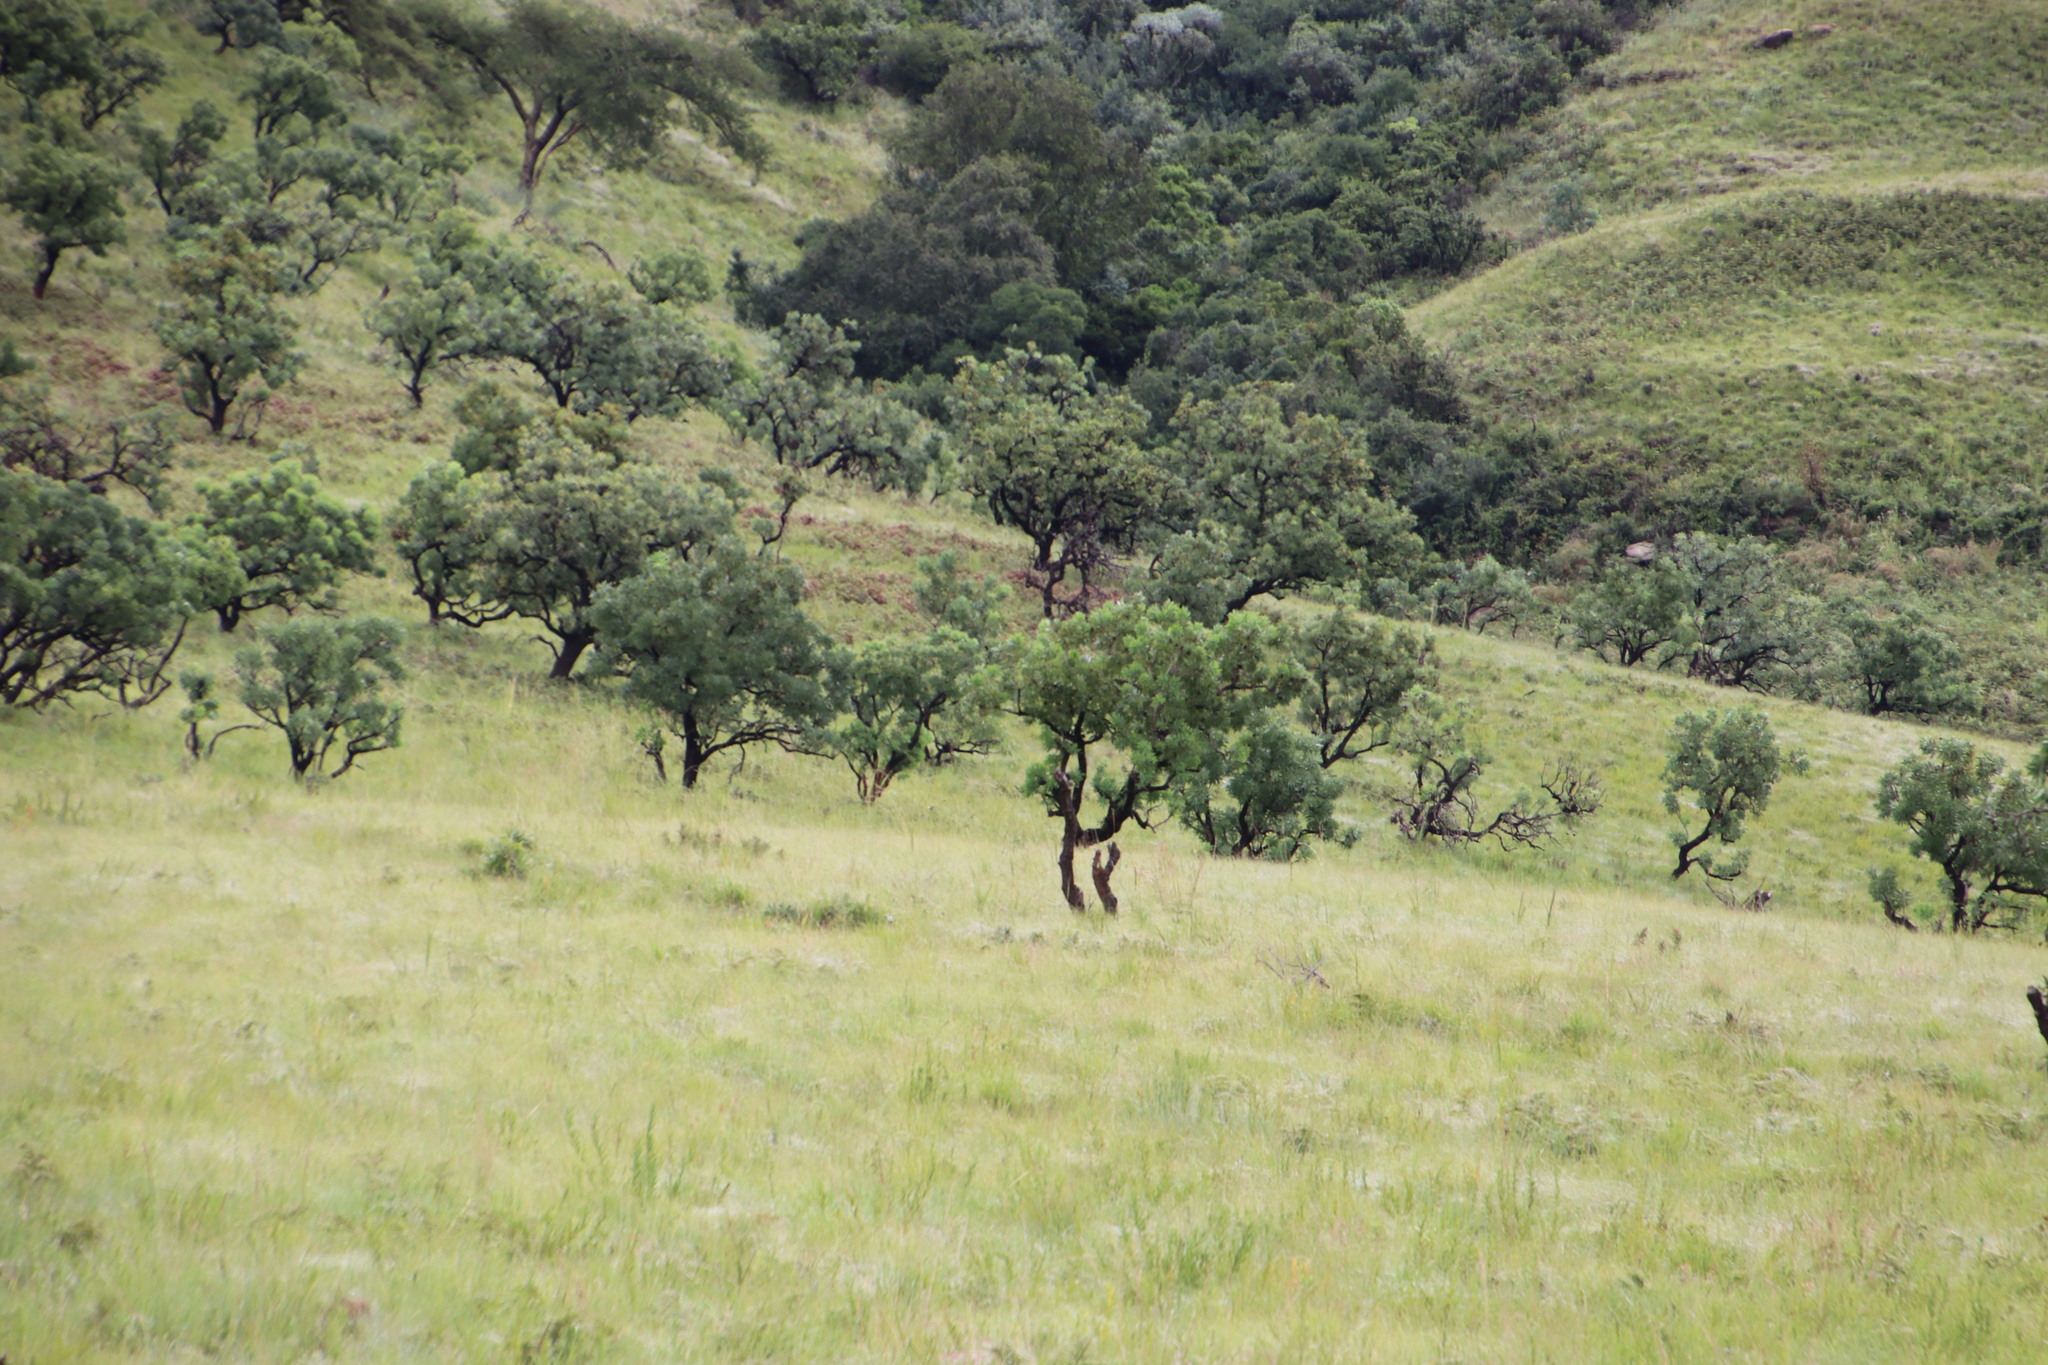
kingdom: Plantae
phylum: Tracheophyta
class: Magnoliopsida
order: Proteales
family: Proteaceae
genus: Protea
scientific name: Protea caffra
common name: Common sugarbush
